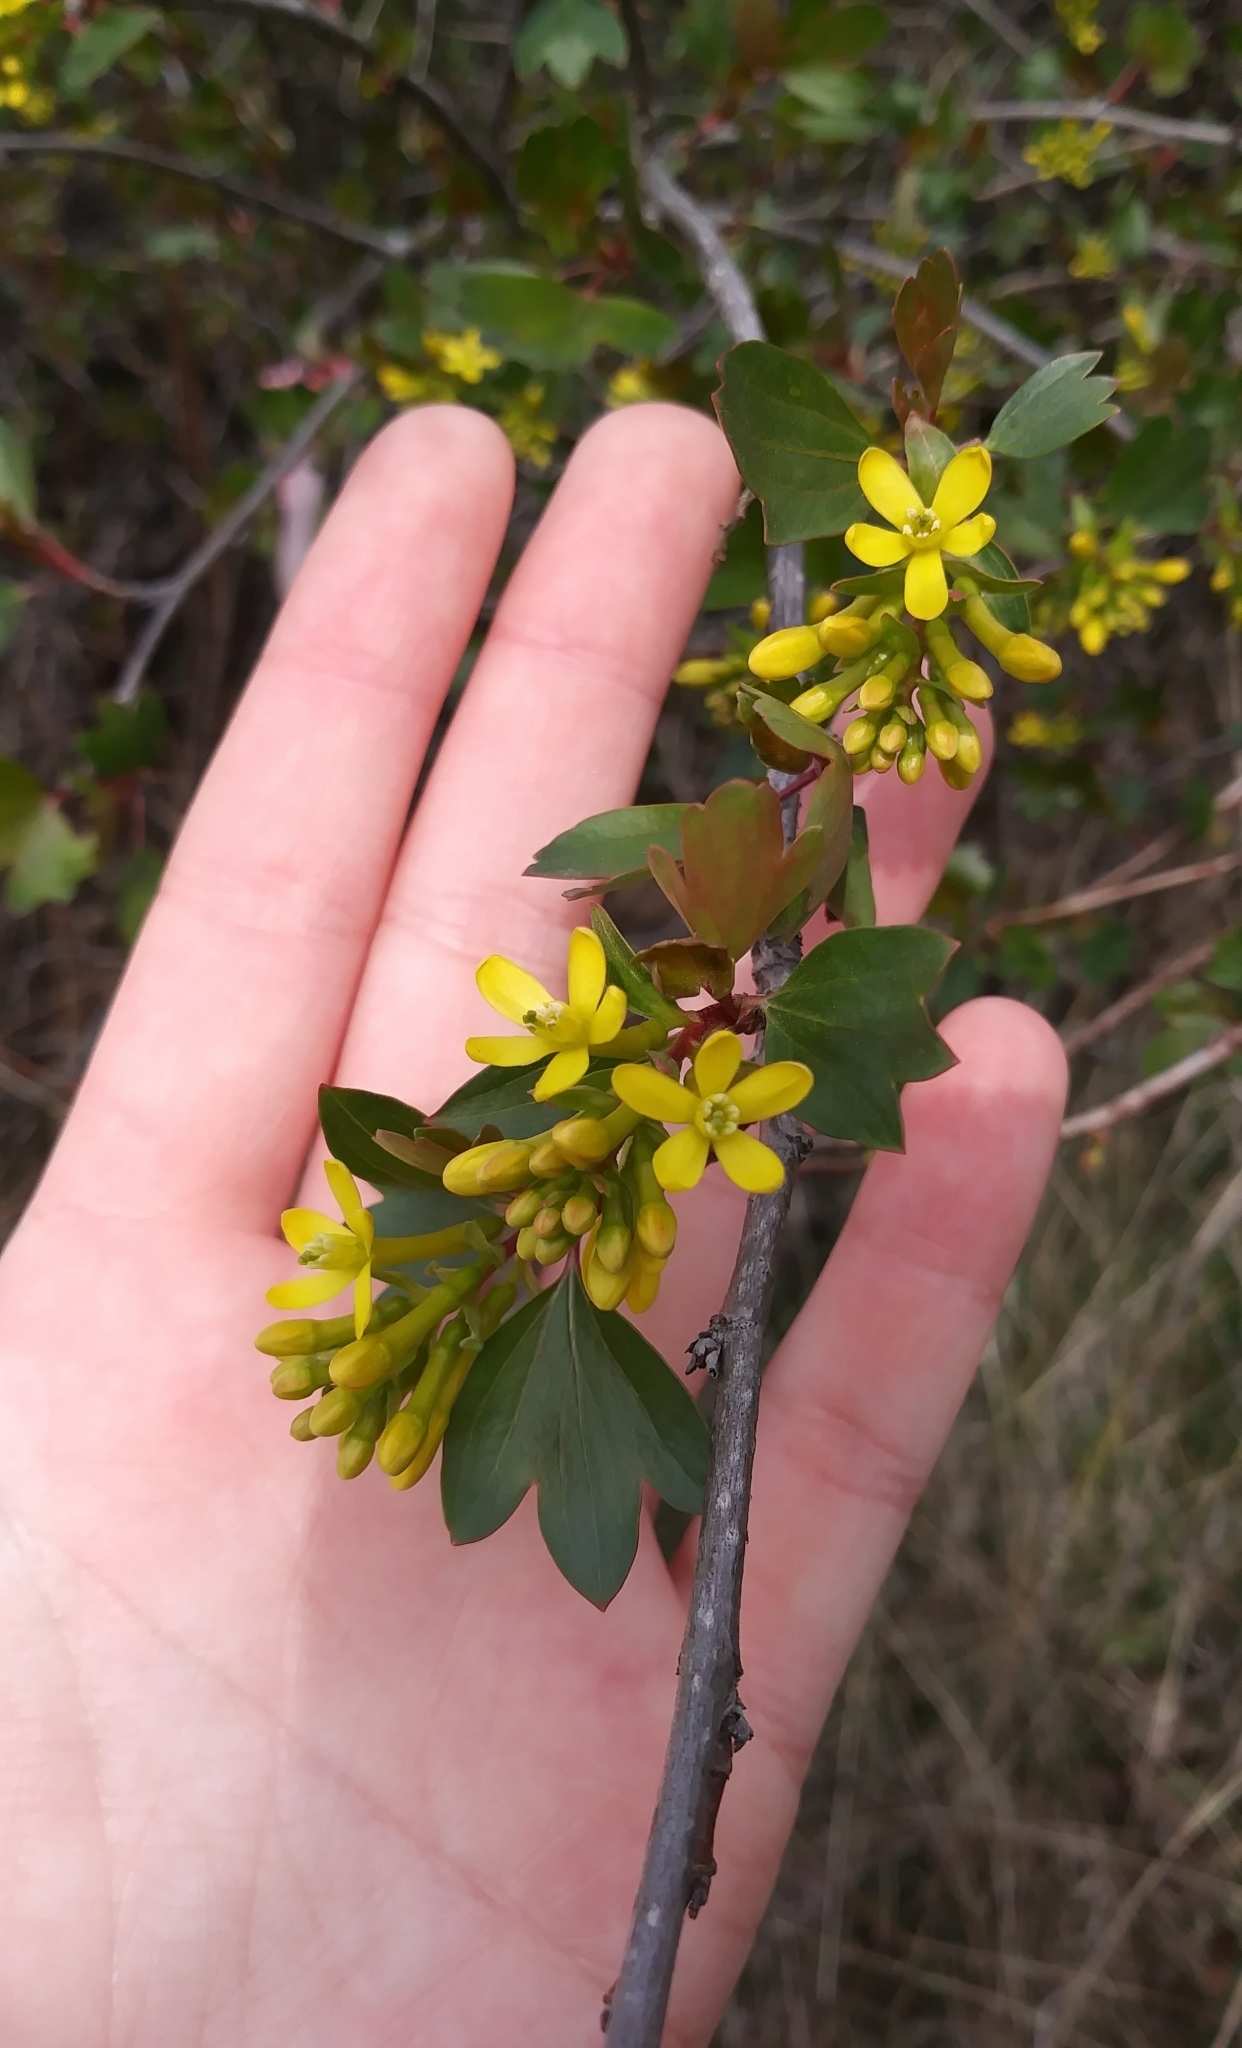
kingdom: Plantae
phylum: Tracheophyta
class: Magnoliopsida
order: Saxifragales
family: Grossulariaceae
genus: Ribes
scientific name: Ribes aureum
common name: Golden currant
